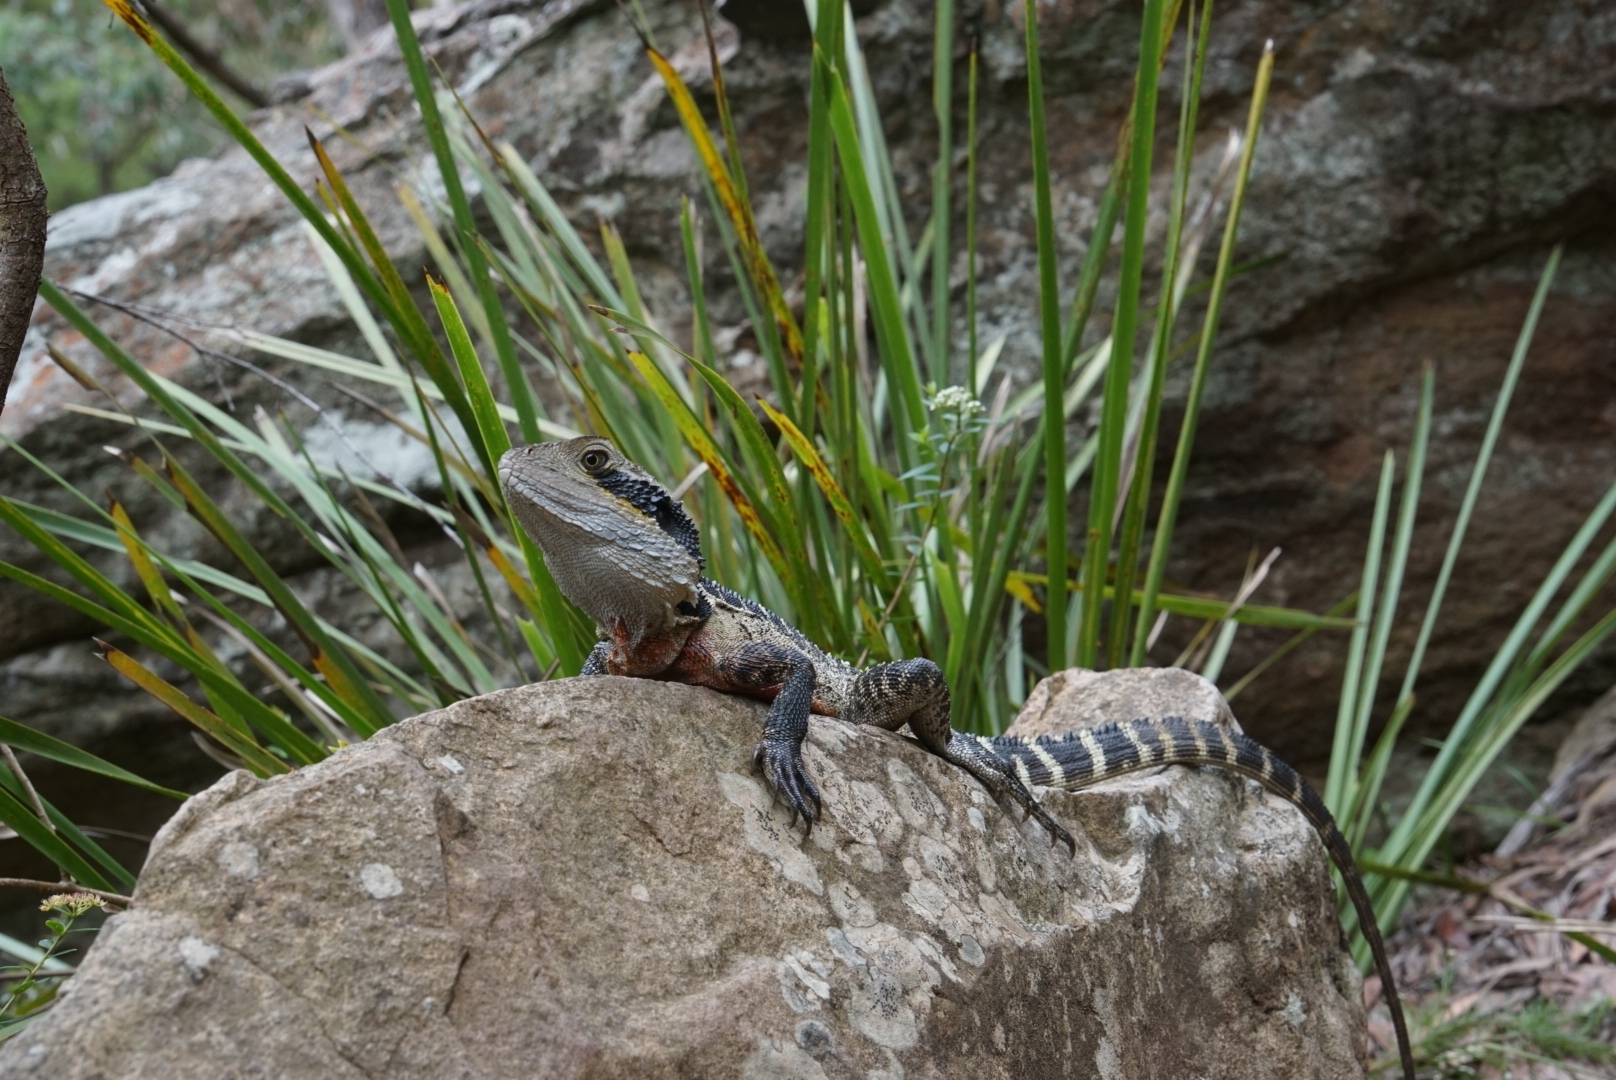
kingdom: Animalia
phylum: Chordata
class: Squamata
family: Agamidae
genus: Intellagama
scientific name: Intellagama lesueurii
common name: Eastern water dragon
